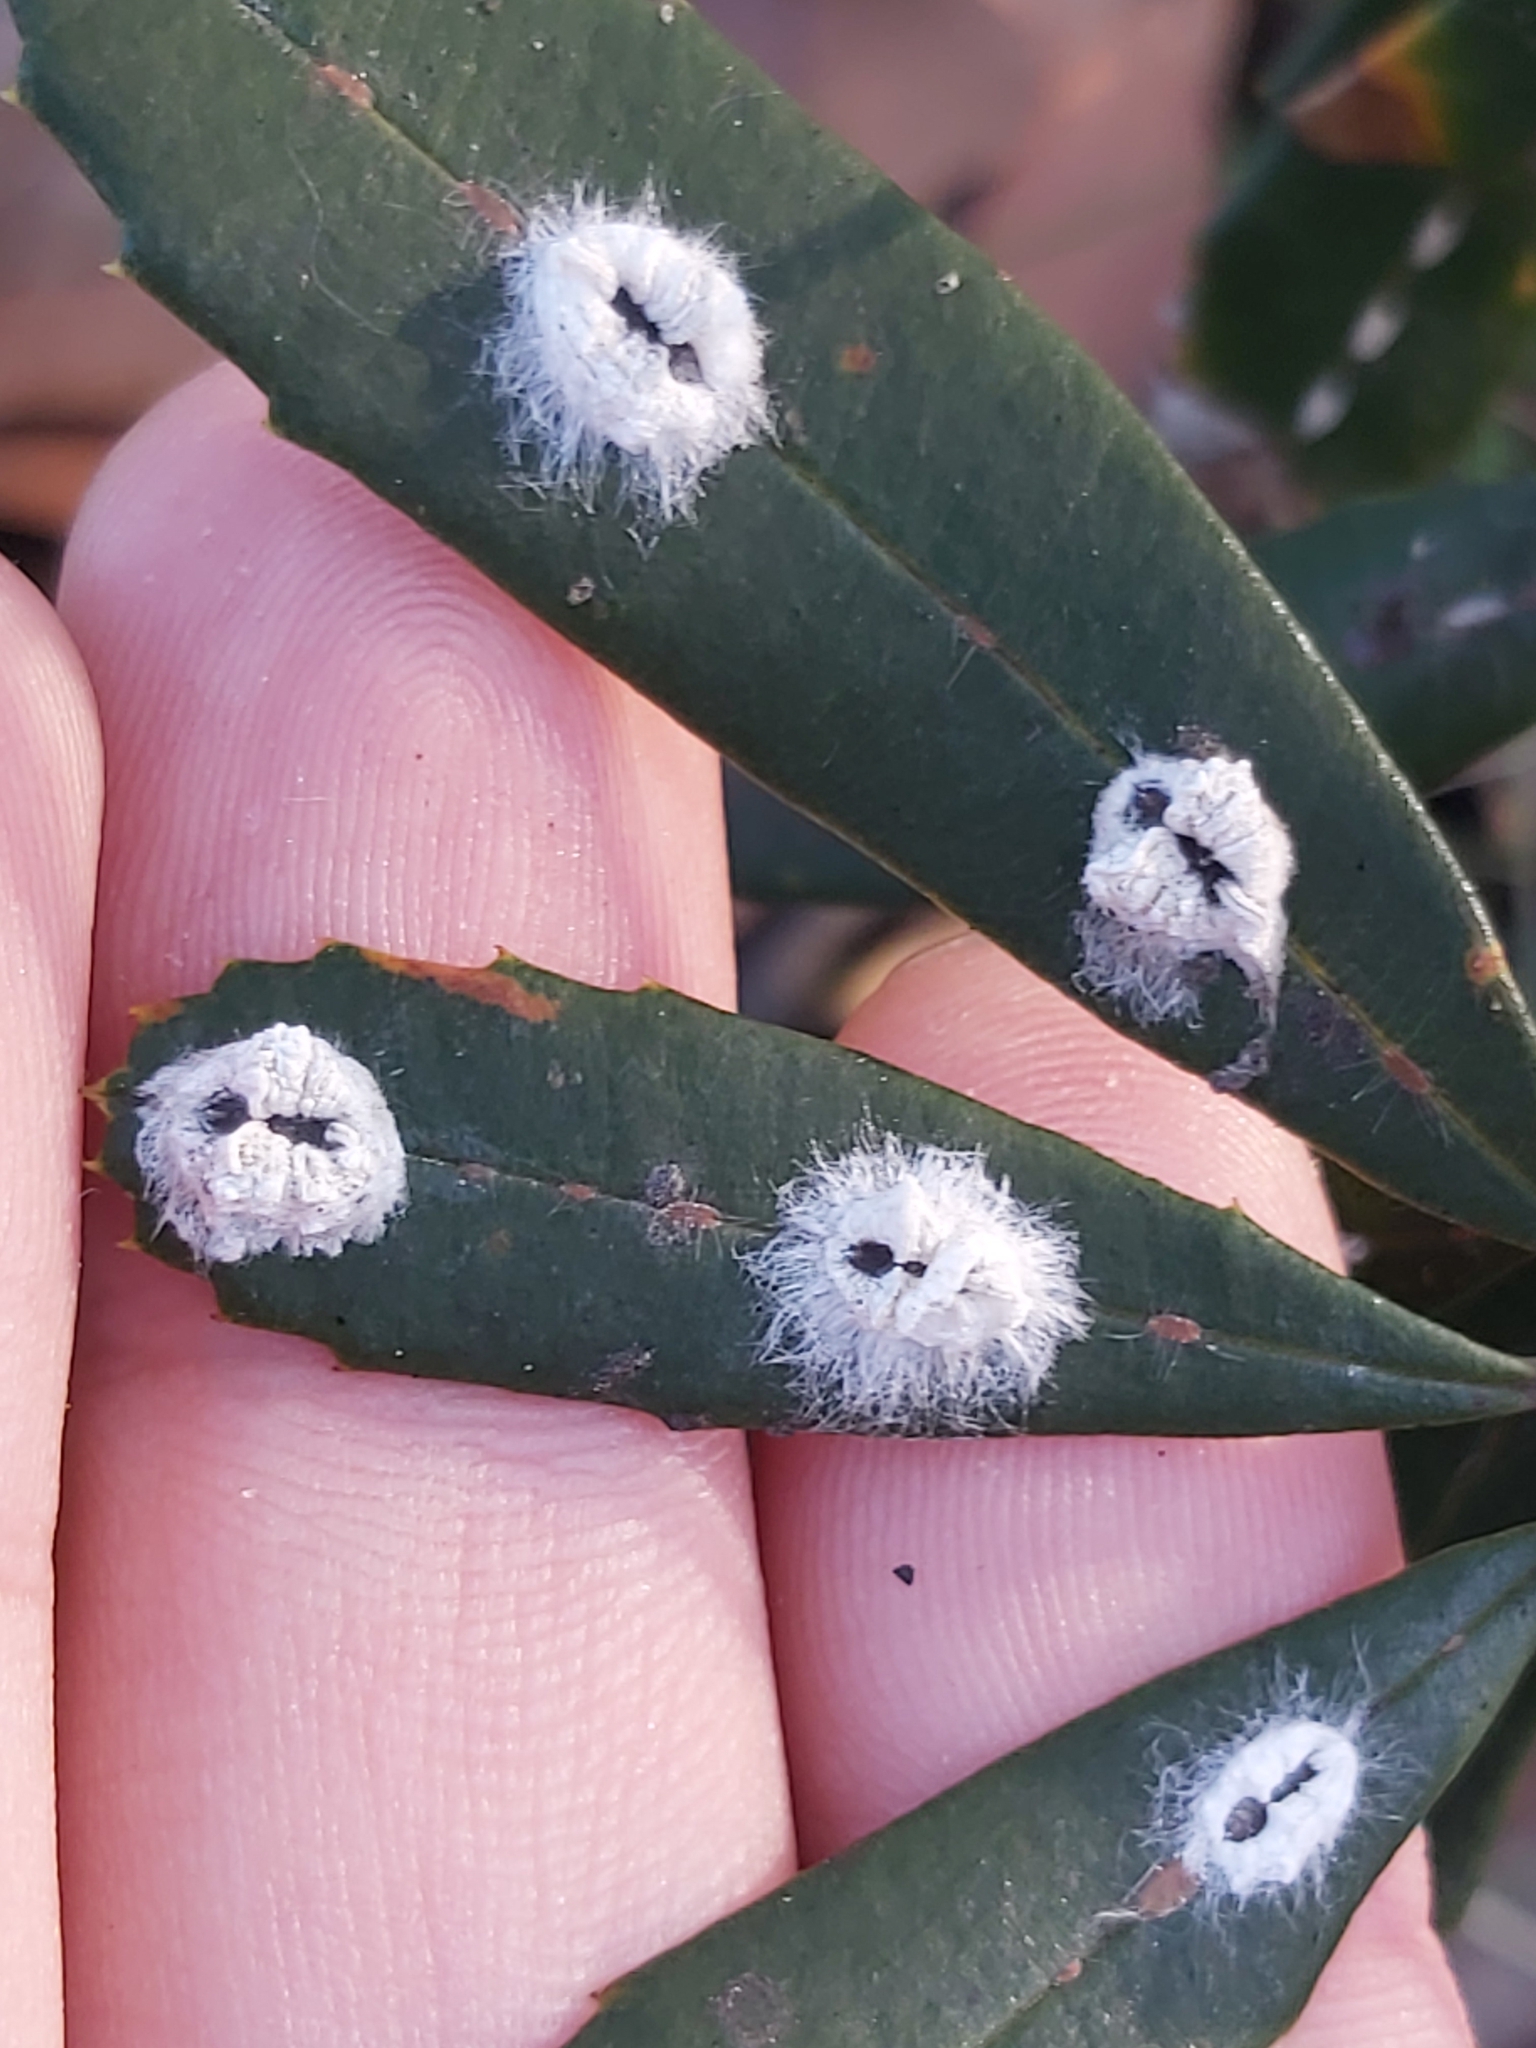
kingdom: Animalia
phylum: Arthropoda
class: Insecta
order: Hemiptera
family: Coccidae
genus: Ceronema
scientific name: Ceronema banksiae
